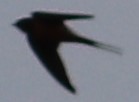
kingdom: Animalia
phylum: Chordata
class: Aves
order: Passeriformes
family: Hirundinidae
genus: Hirundo
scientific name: Hirundo rustica
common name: Barn swallow
